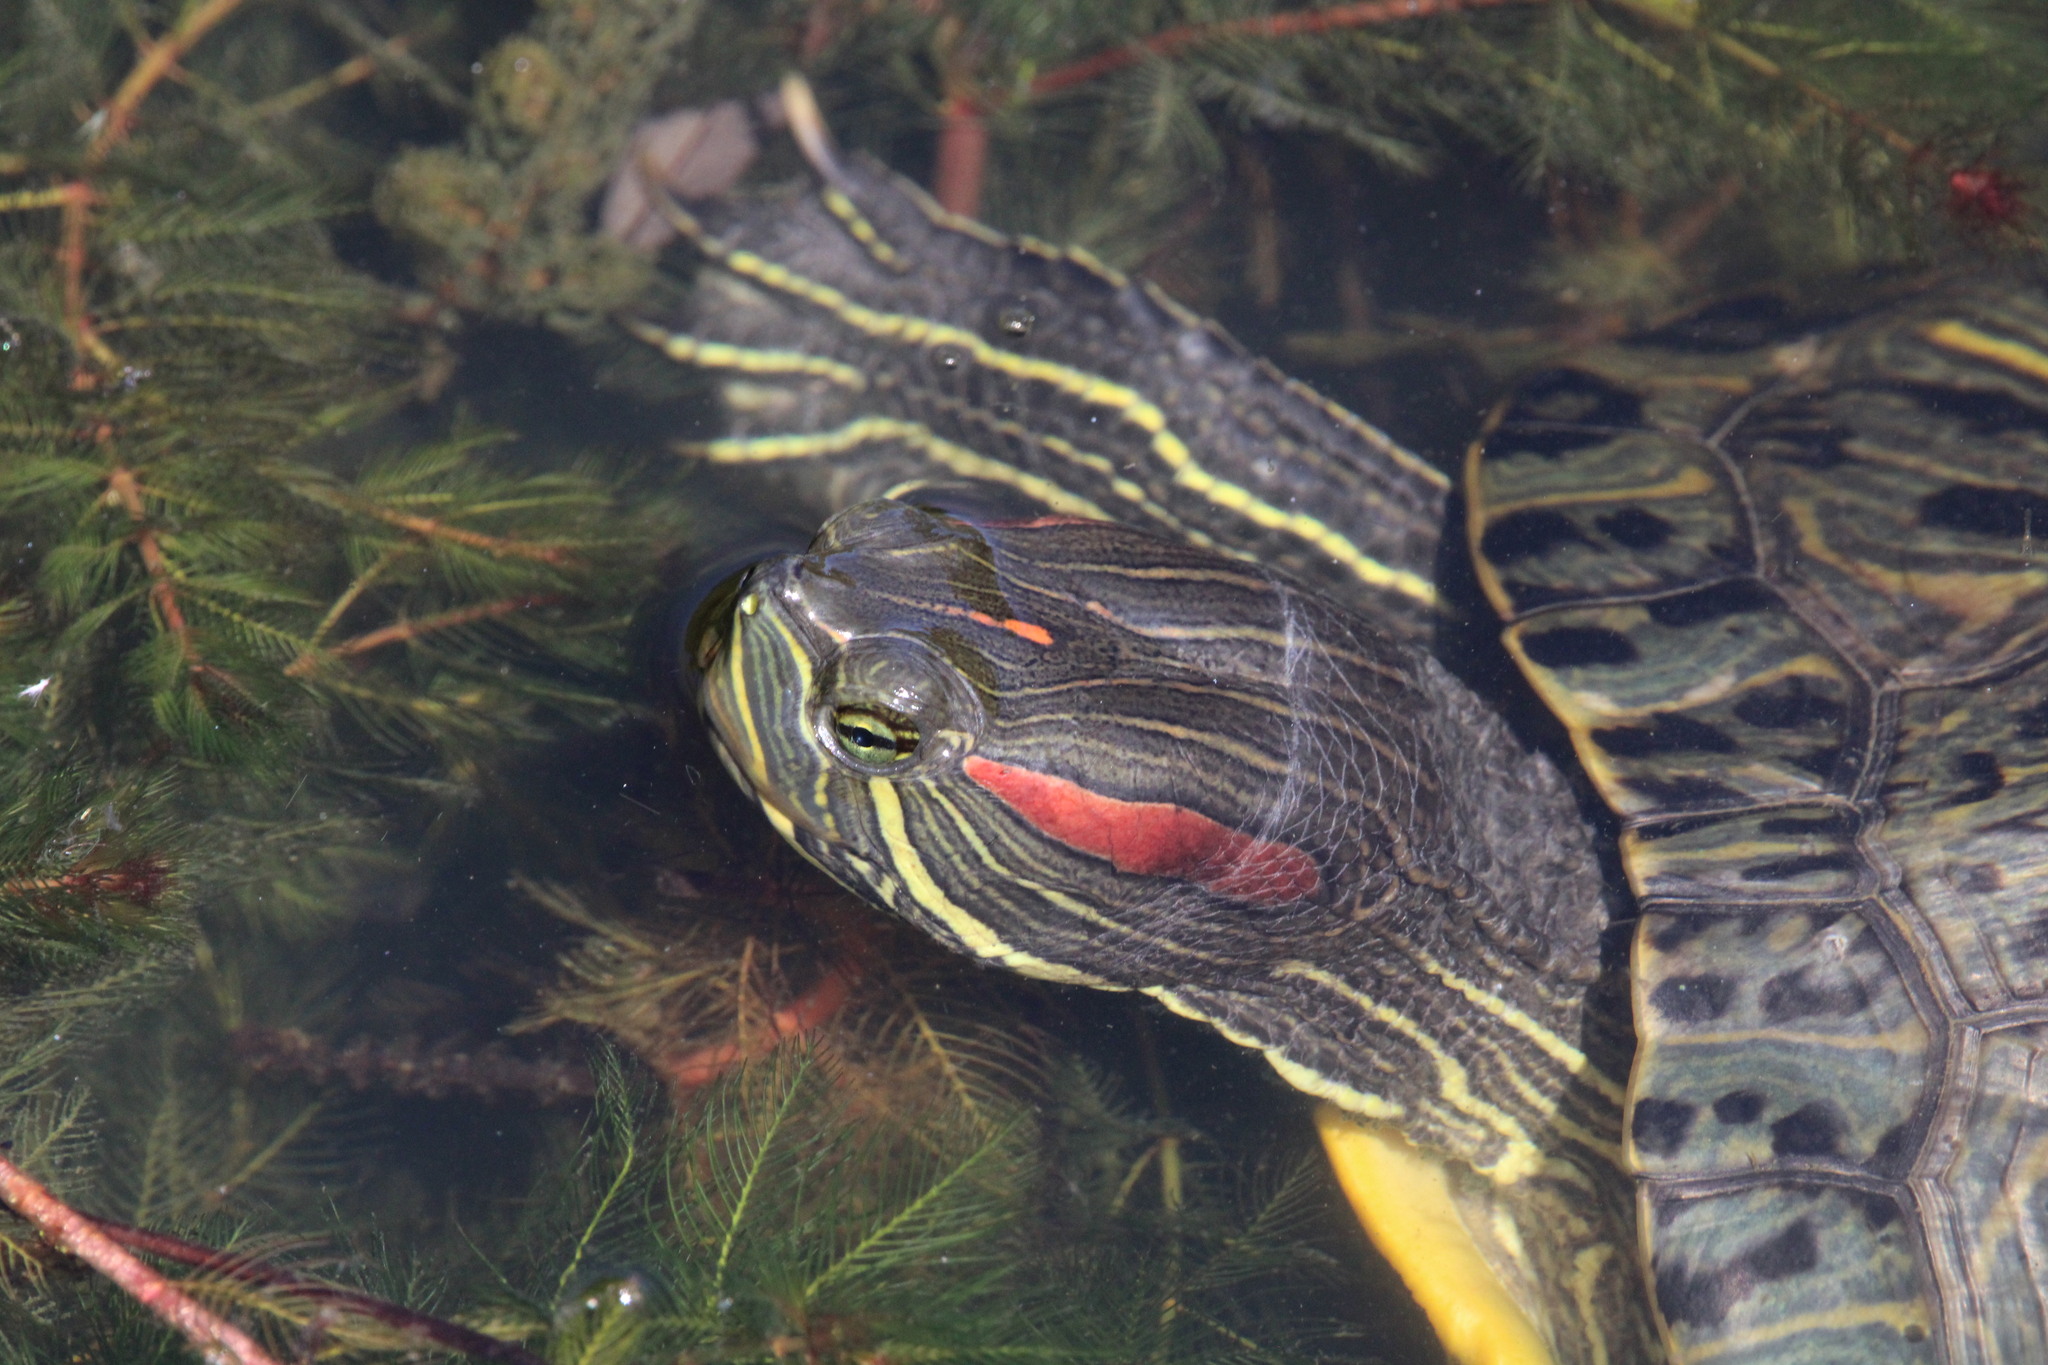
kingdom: Animalia
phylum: Chordata
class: Testudines
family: Emydidae
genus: Trachemys
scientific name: Trachemys scripta
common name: Slider
